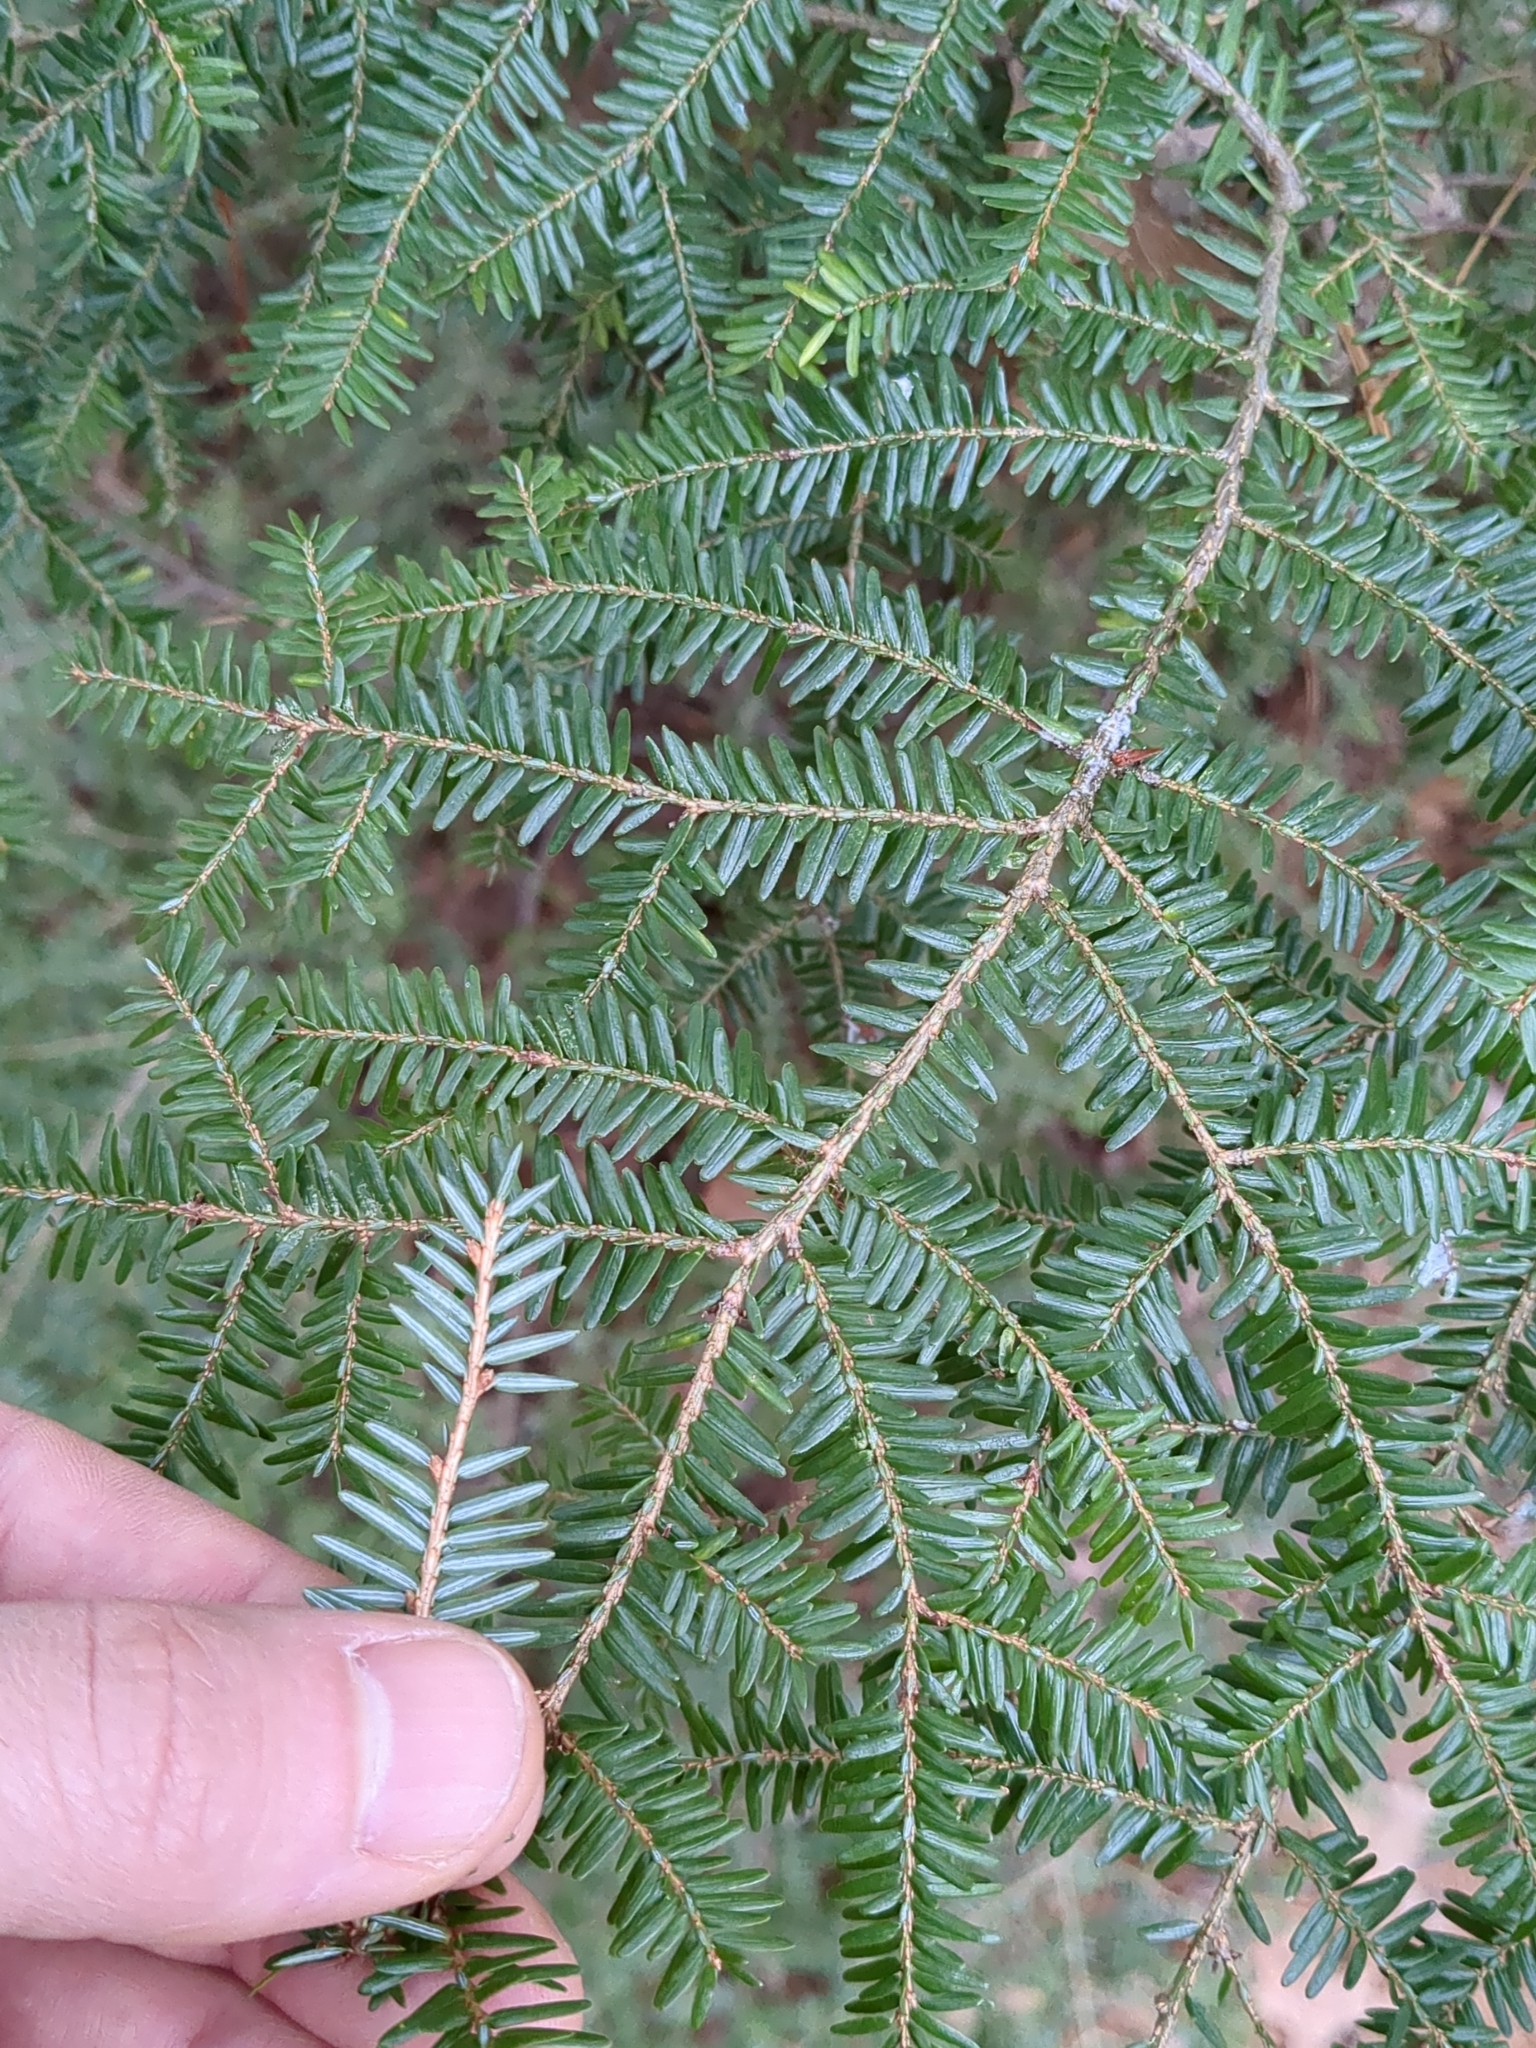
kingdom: Plantae
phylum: Tracheophyta
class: Pinopsida
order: Pinales
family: Pinaceae
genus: Tsuga
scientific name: Tsuga canadensis
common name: Eastern hemlock
